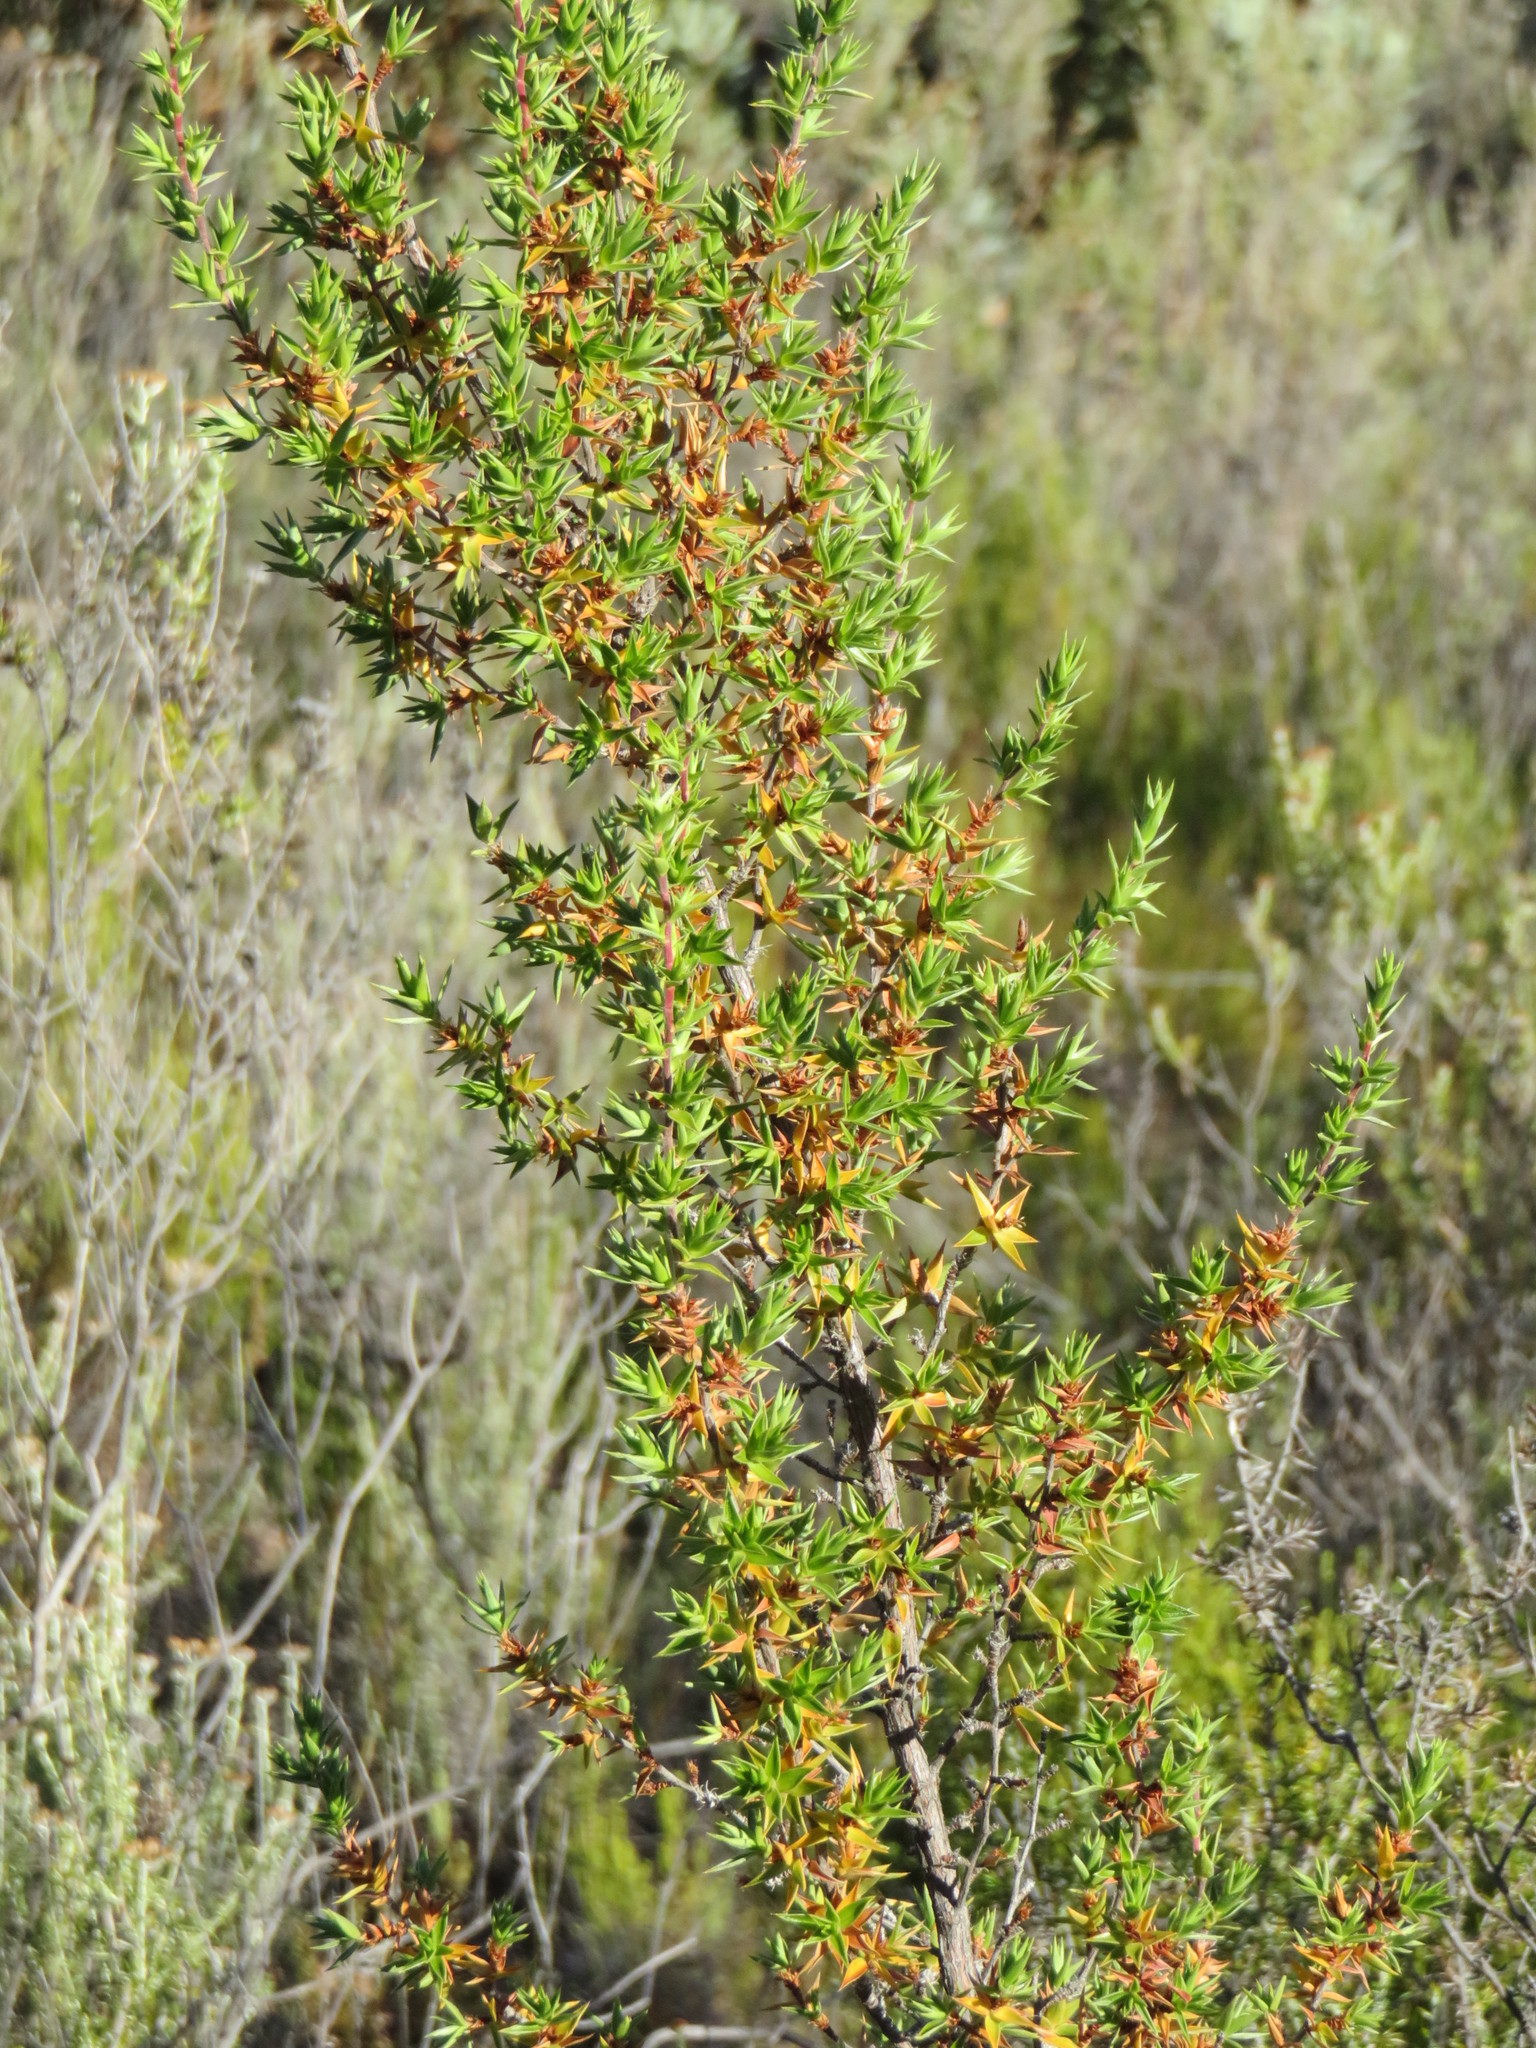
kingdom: Plantae
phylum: Tracheophyta
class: Magnoliopsida
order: Rosales
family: Rosaceae
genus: Cliffortia
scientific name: Cliffortia ruscifolia
